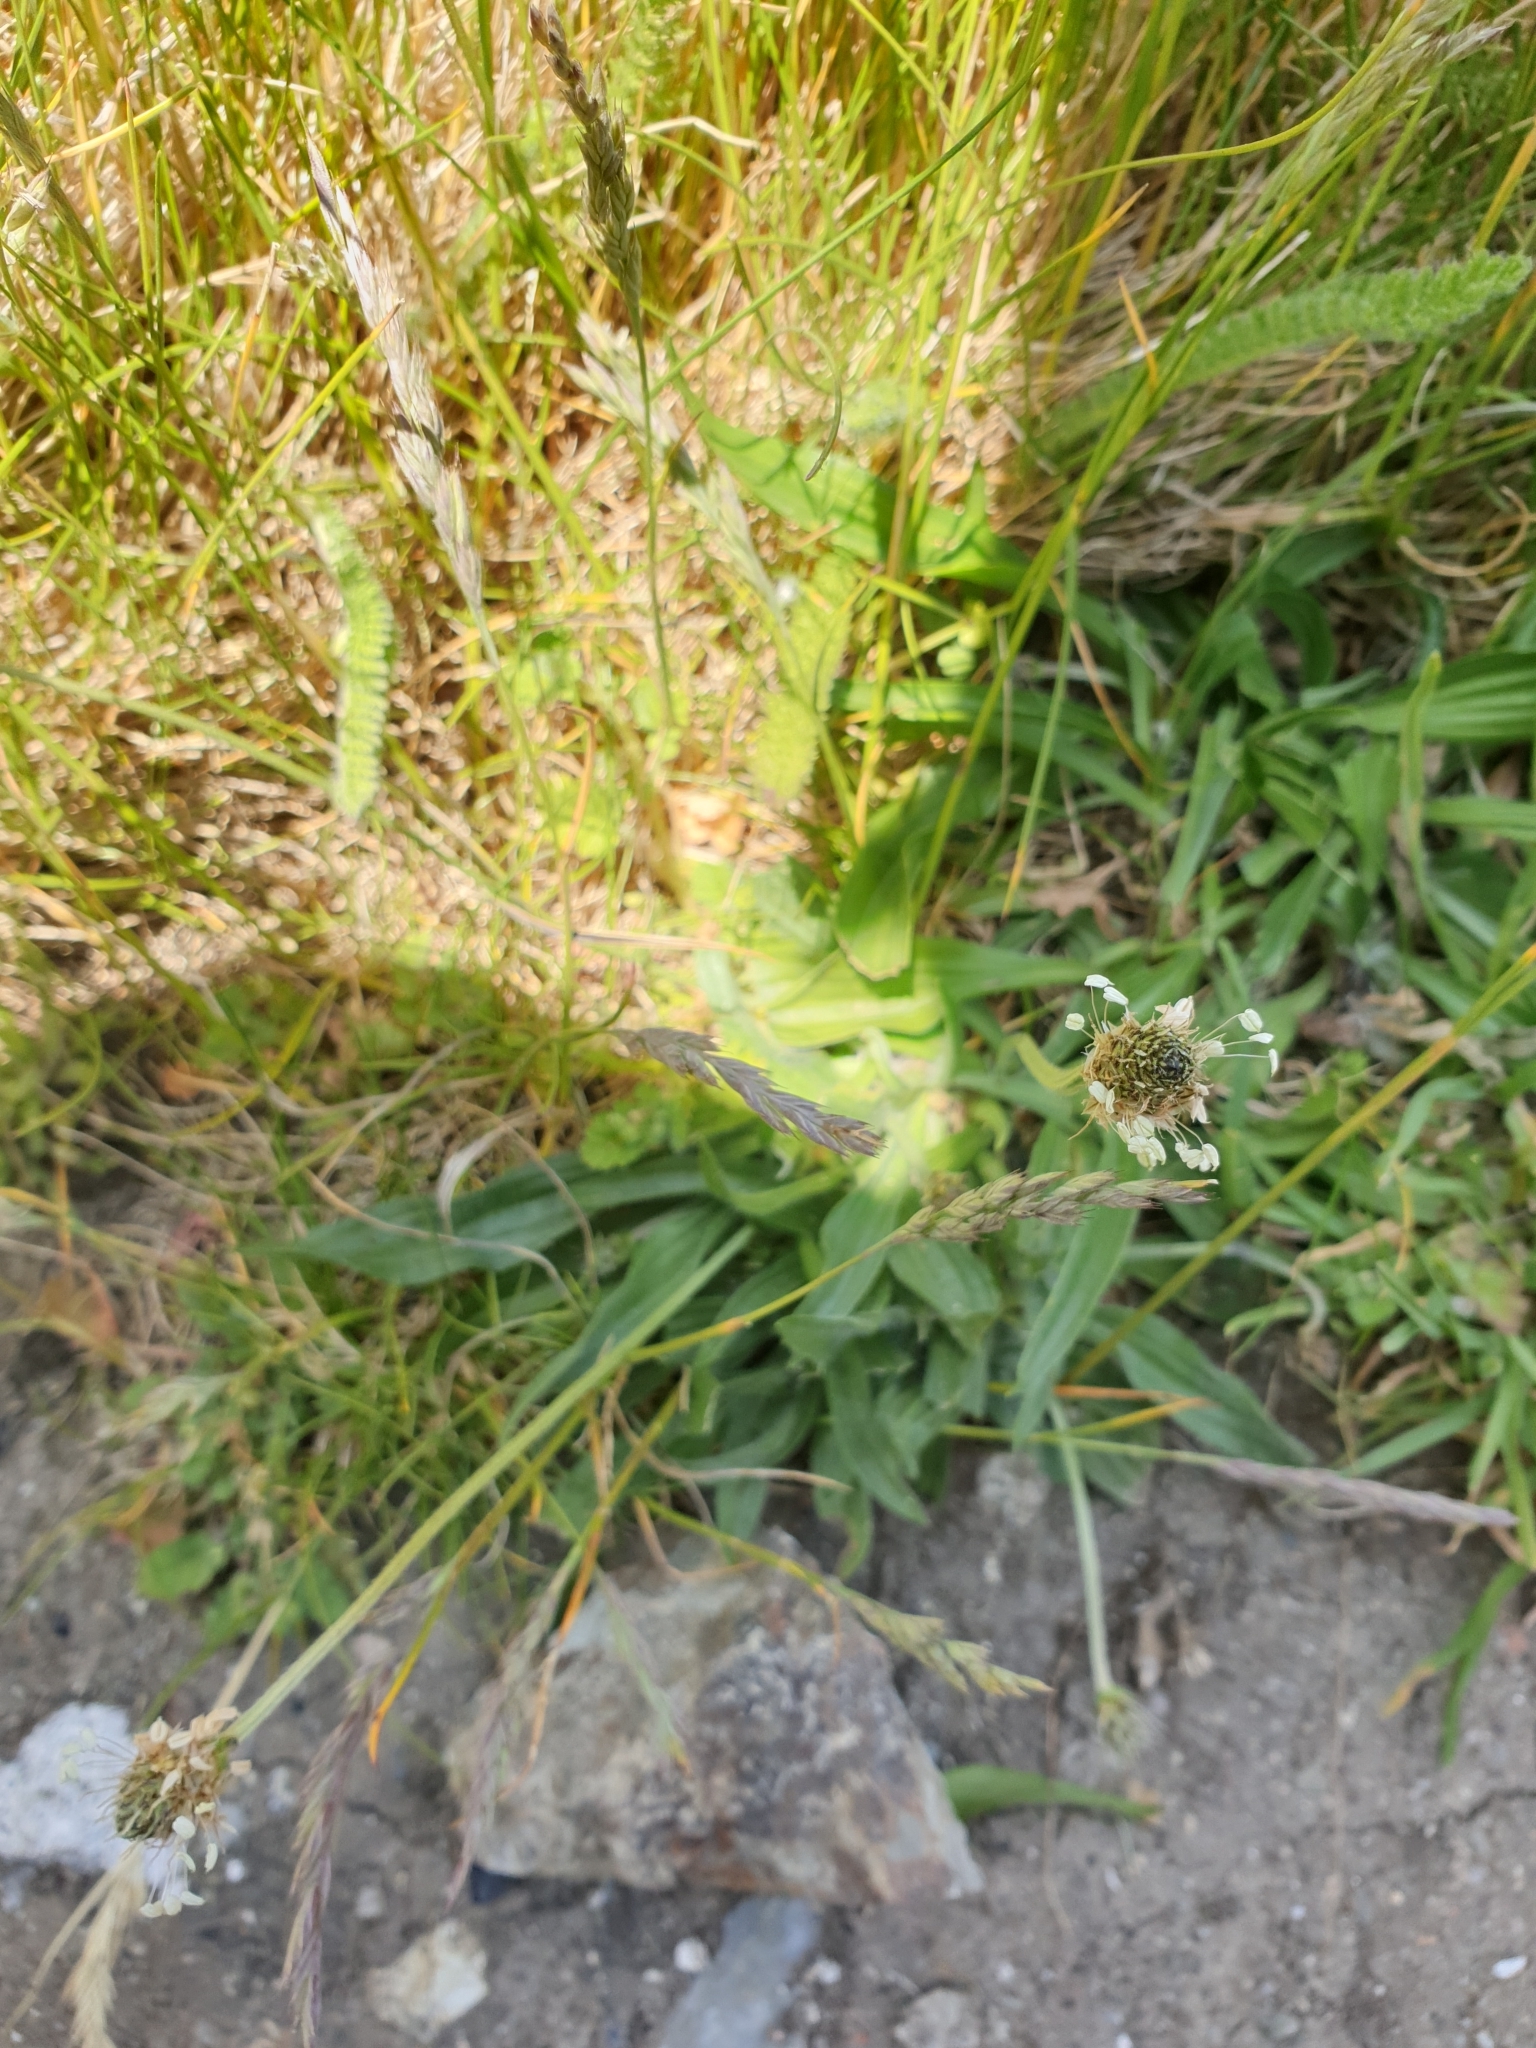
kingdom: Plantae
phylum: Tracheophyta
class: Magnoliopsida
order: Lamiales
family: Plantaginaceae
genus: Plantago
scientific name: Plantago lanceolata
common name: Ribwort plantain
